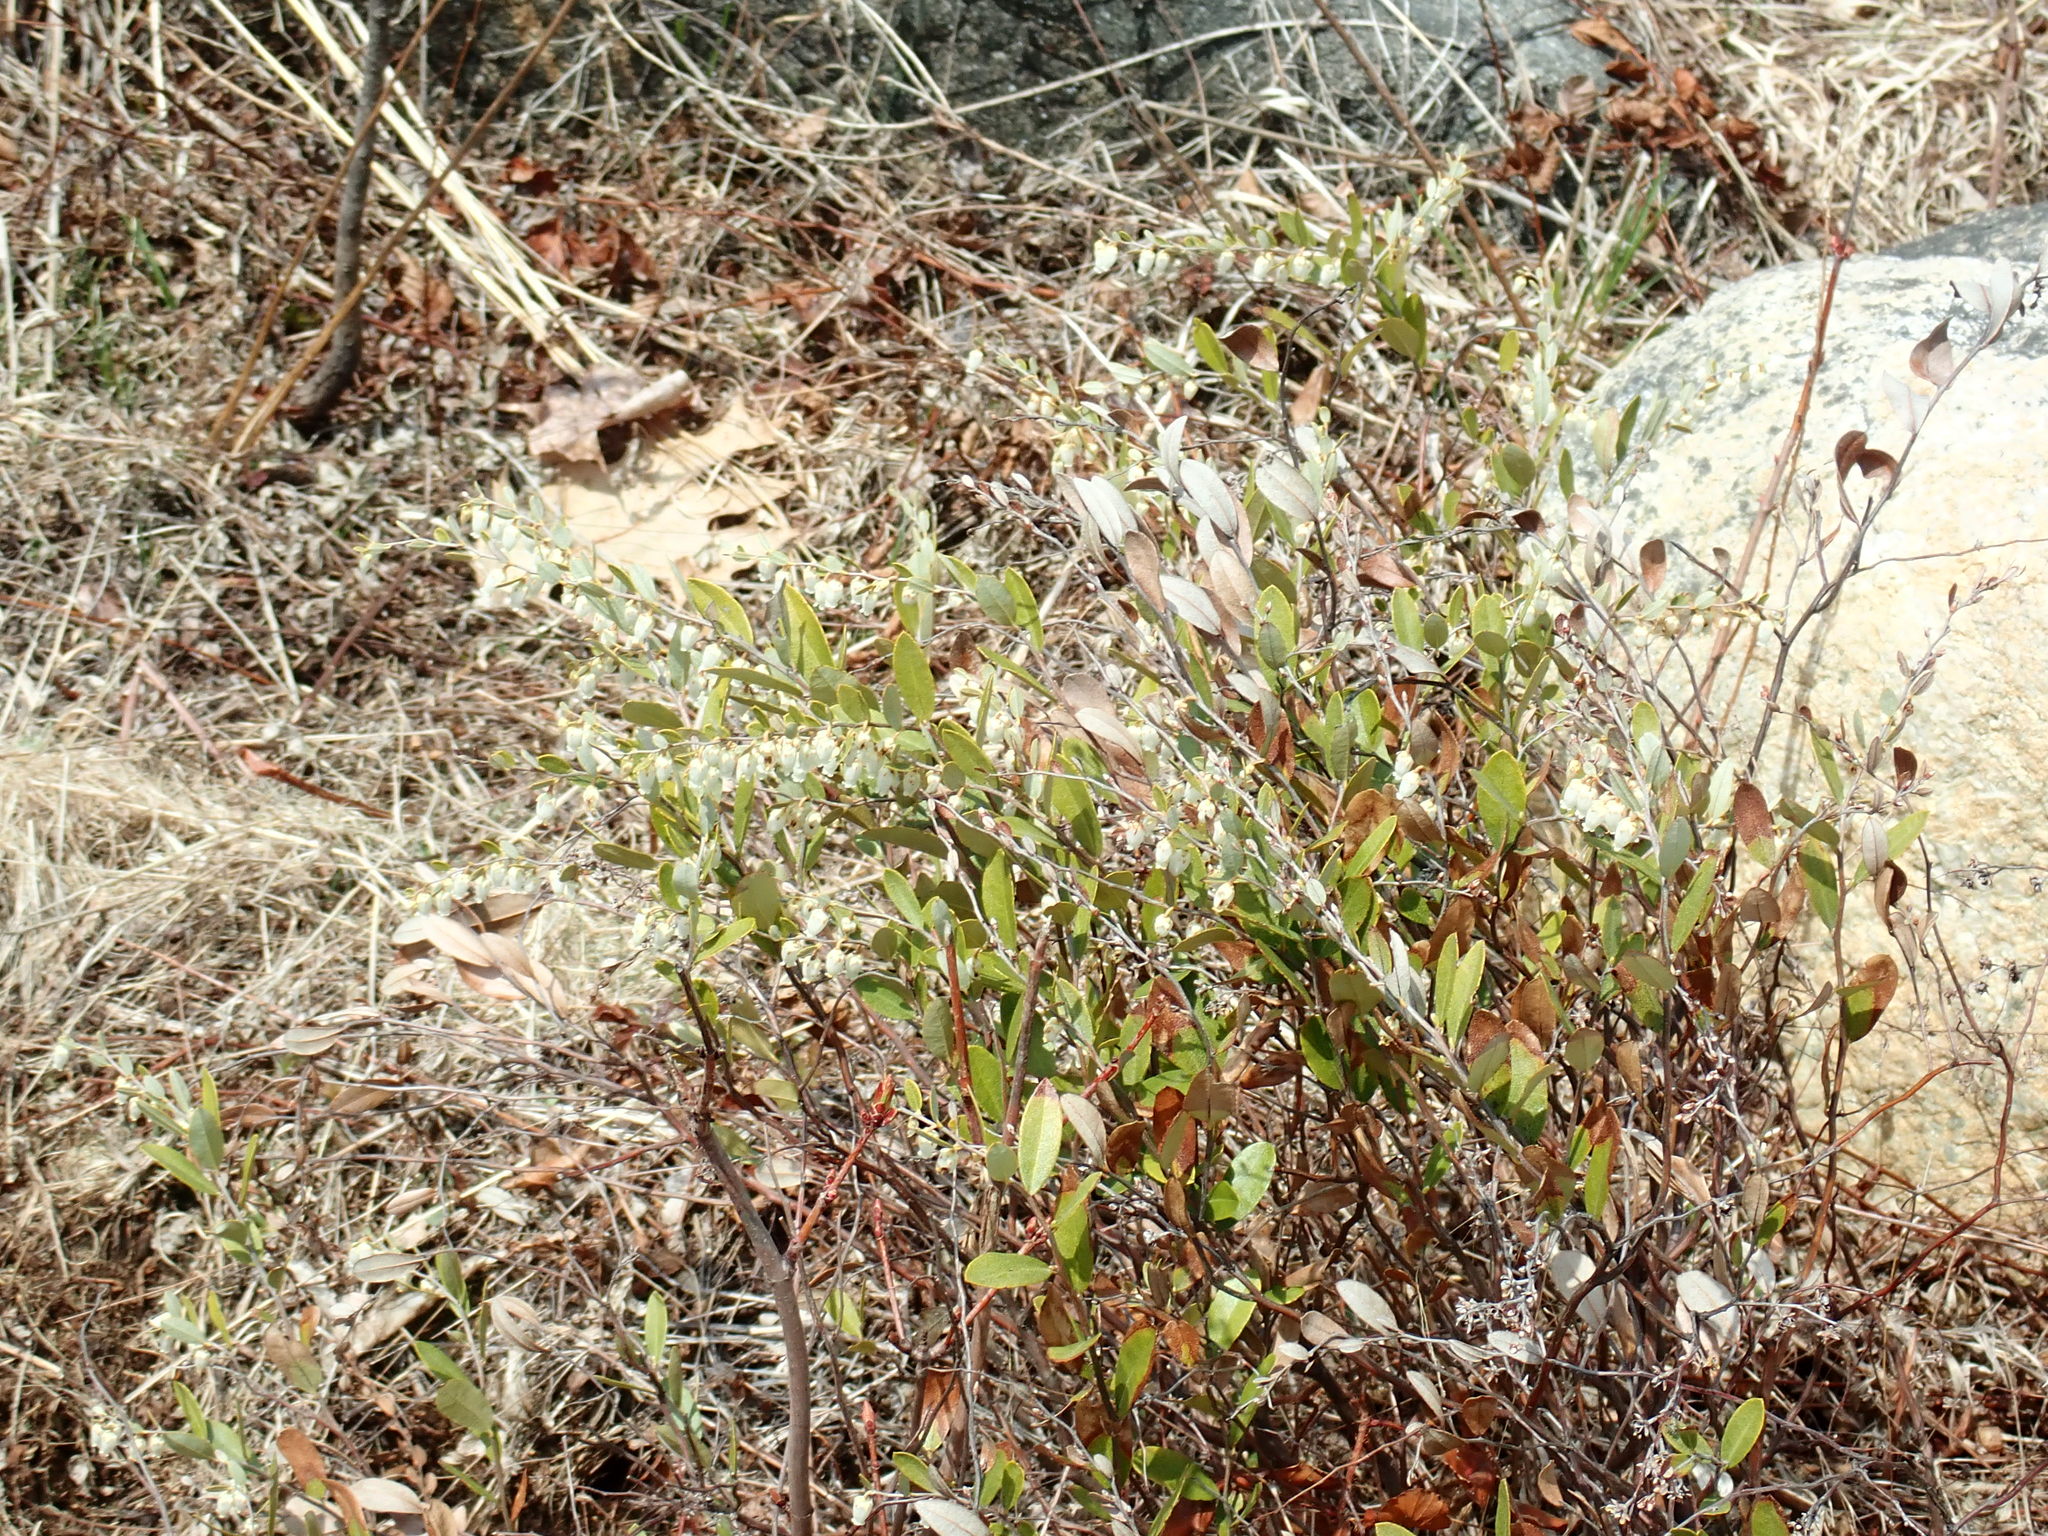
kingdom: Plantae
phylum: Tracheophyta
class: Magnoliopsida
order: Ericales
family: Ericaceae
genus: Chamaedaphne
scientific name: Chamaedaphne calyculata
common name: Leatherleaf
